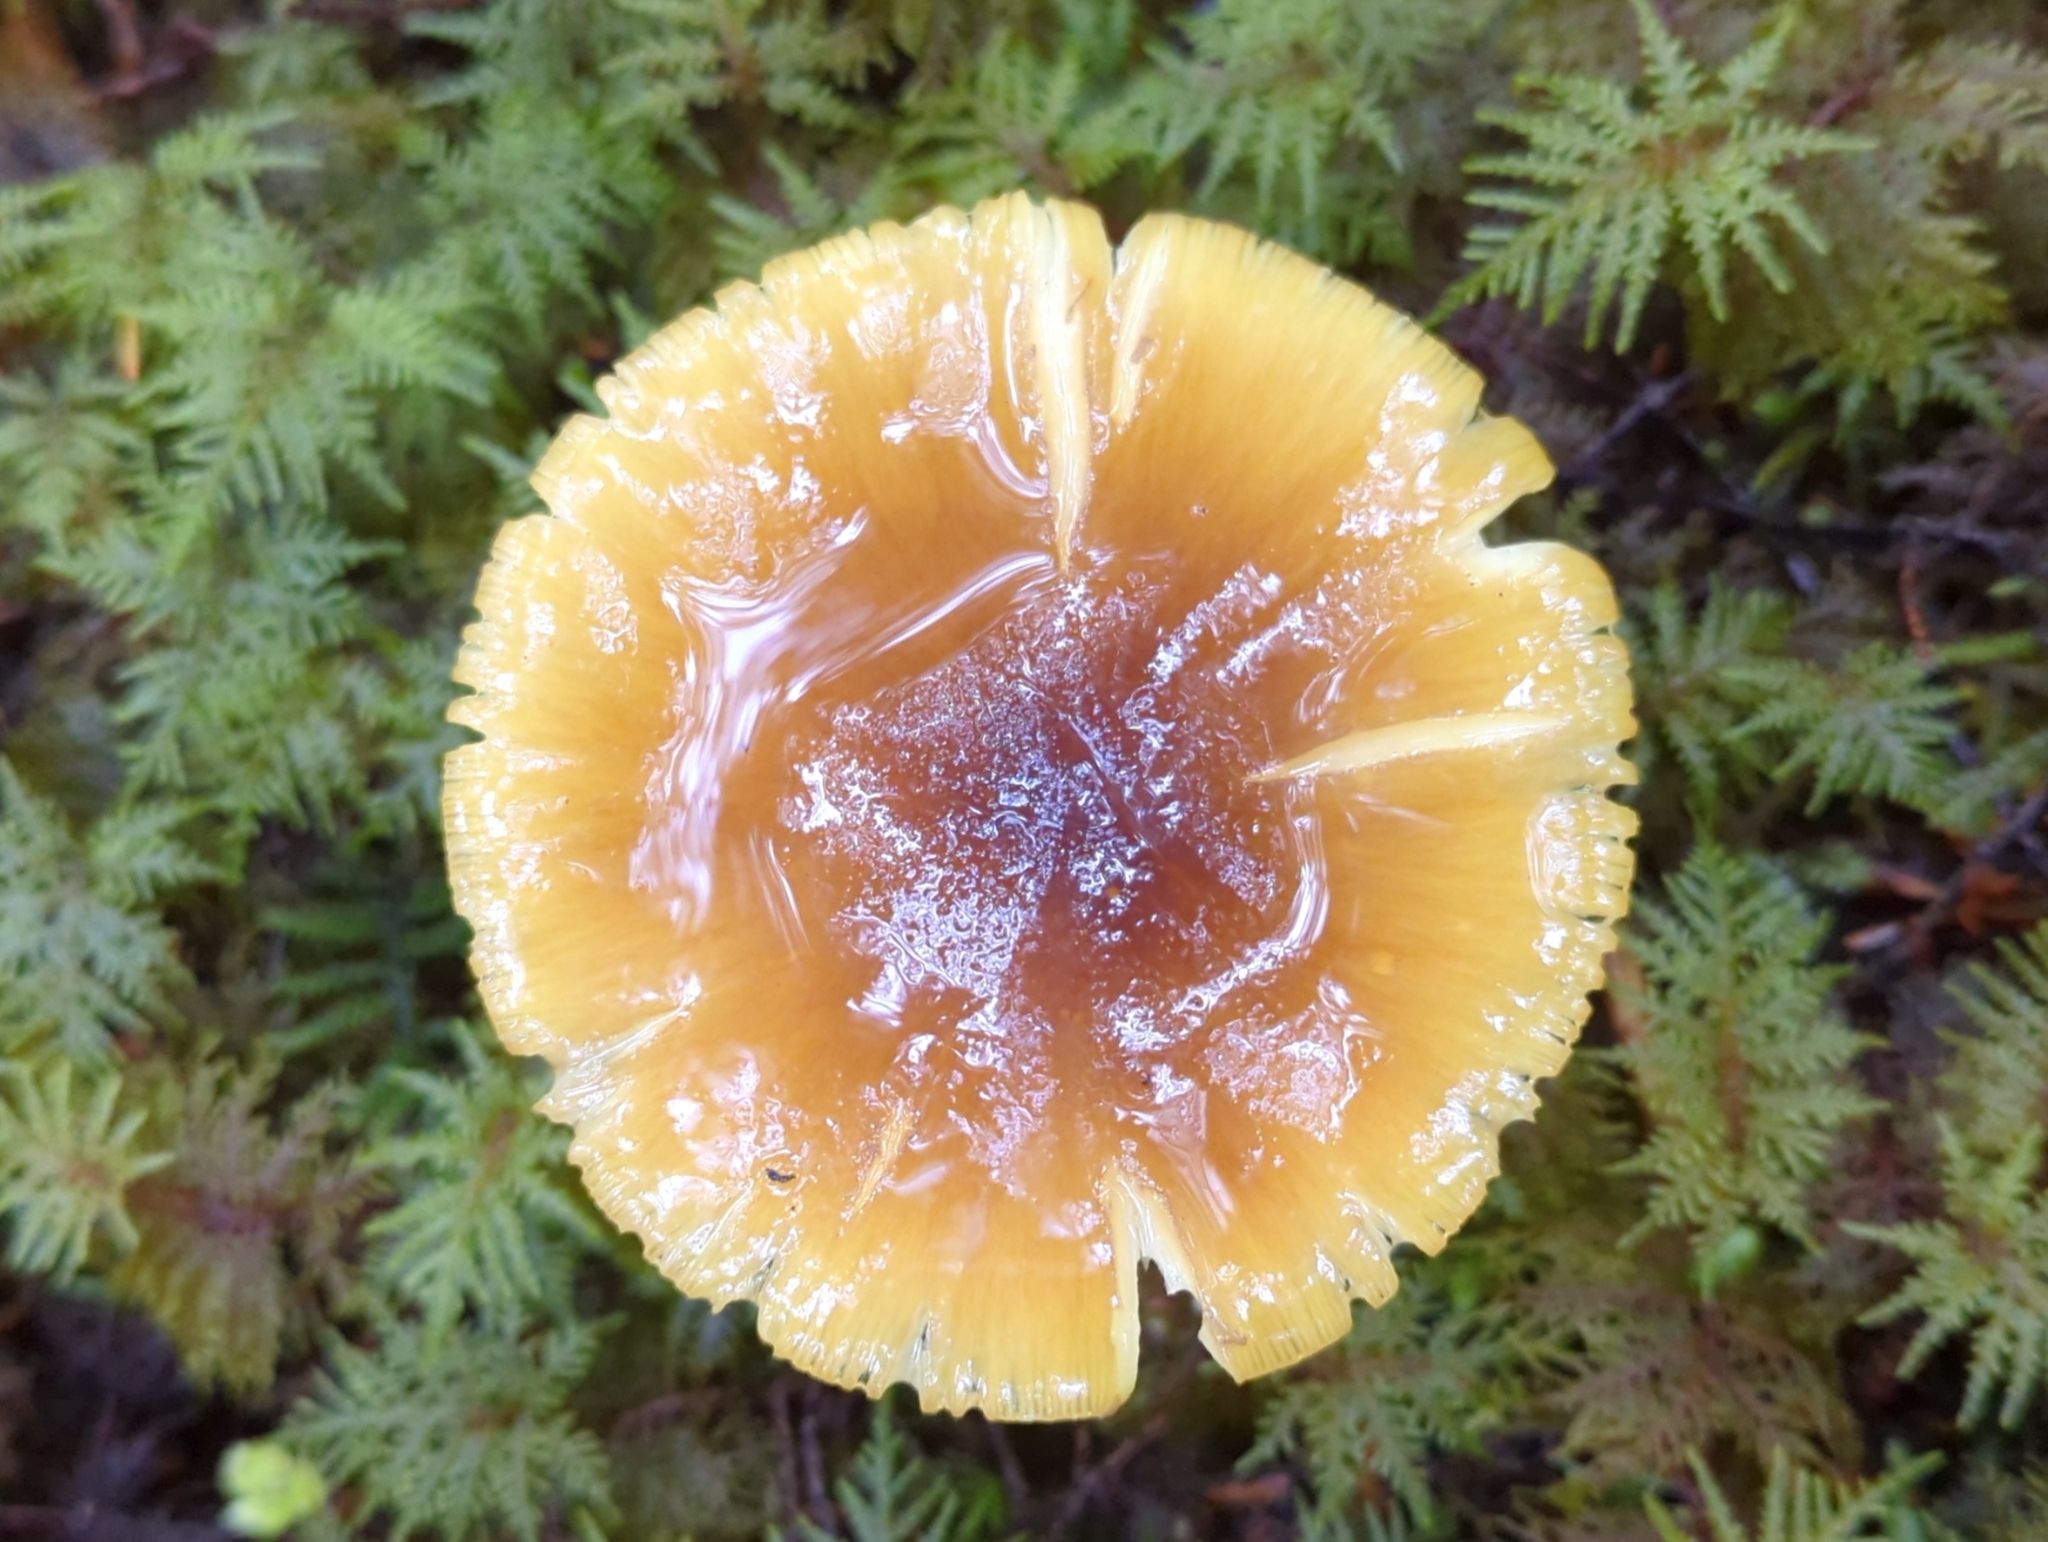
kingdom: Fungi
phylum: Basidiomycota
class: Agaricomycetes
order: Agaricales
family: Amanitaceae
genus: Amanita
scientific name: Amanita augusta
